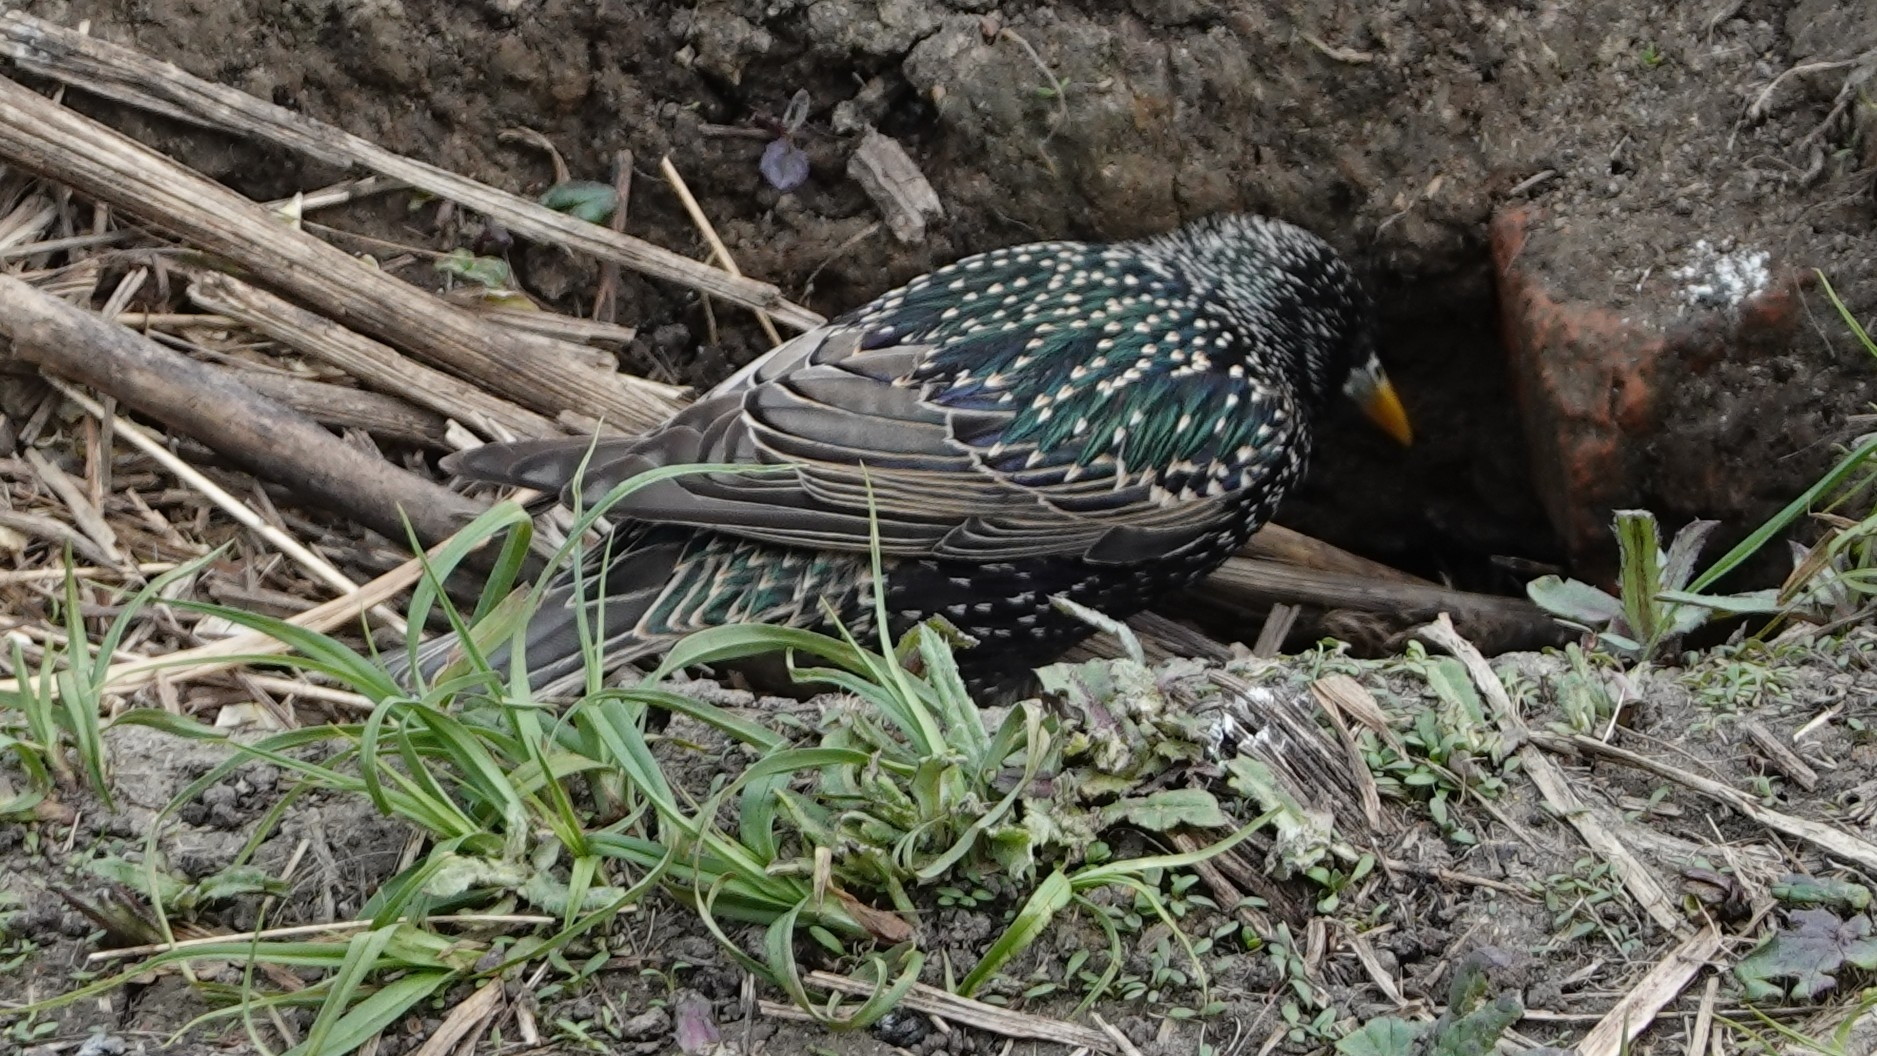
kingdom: Animalia
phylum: Chordata
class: Aves
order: Passeriformes
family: Sturnidae
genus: Sturnus
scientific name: Sturnus vulgaris
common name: Common starling
